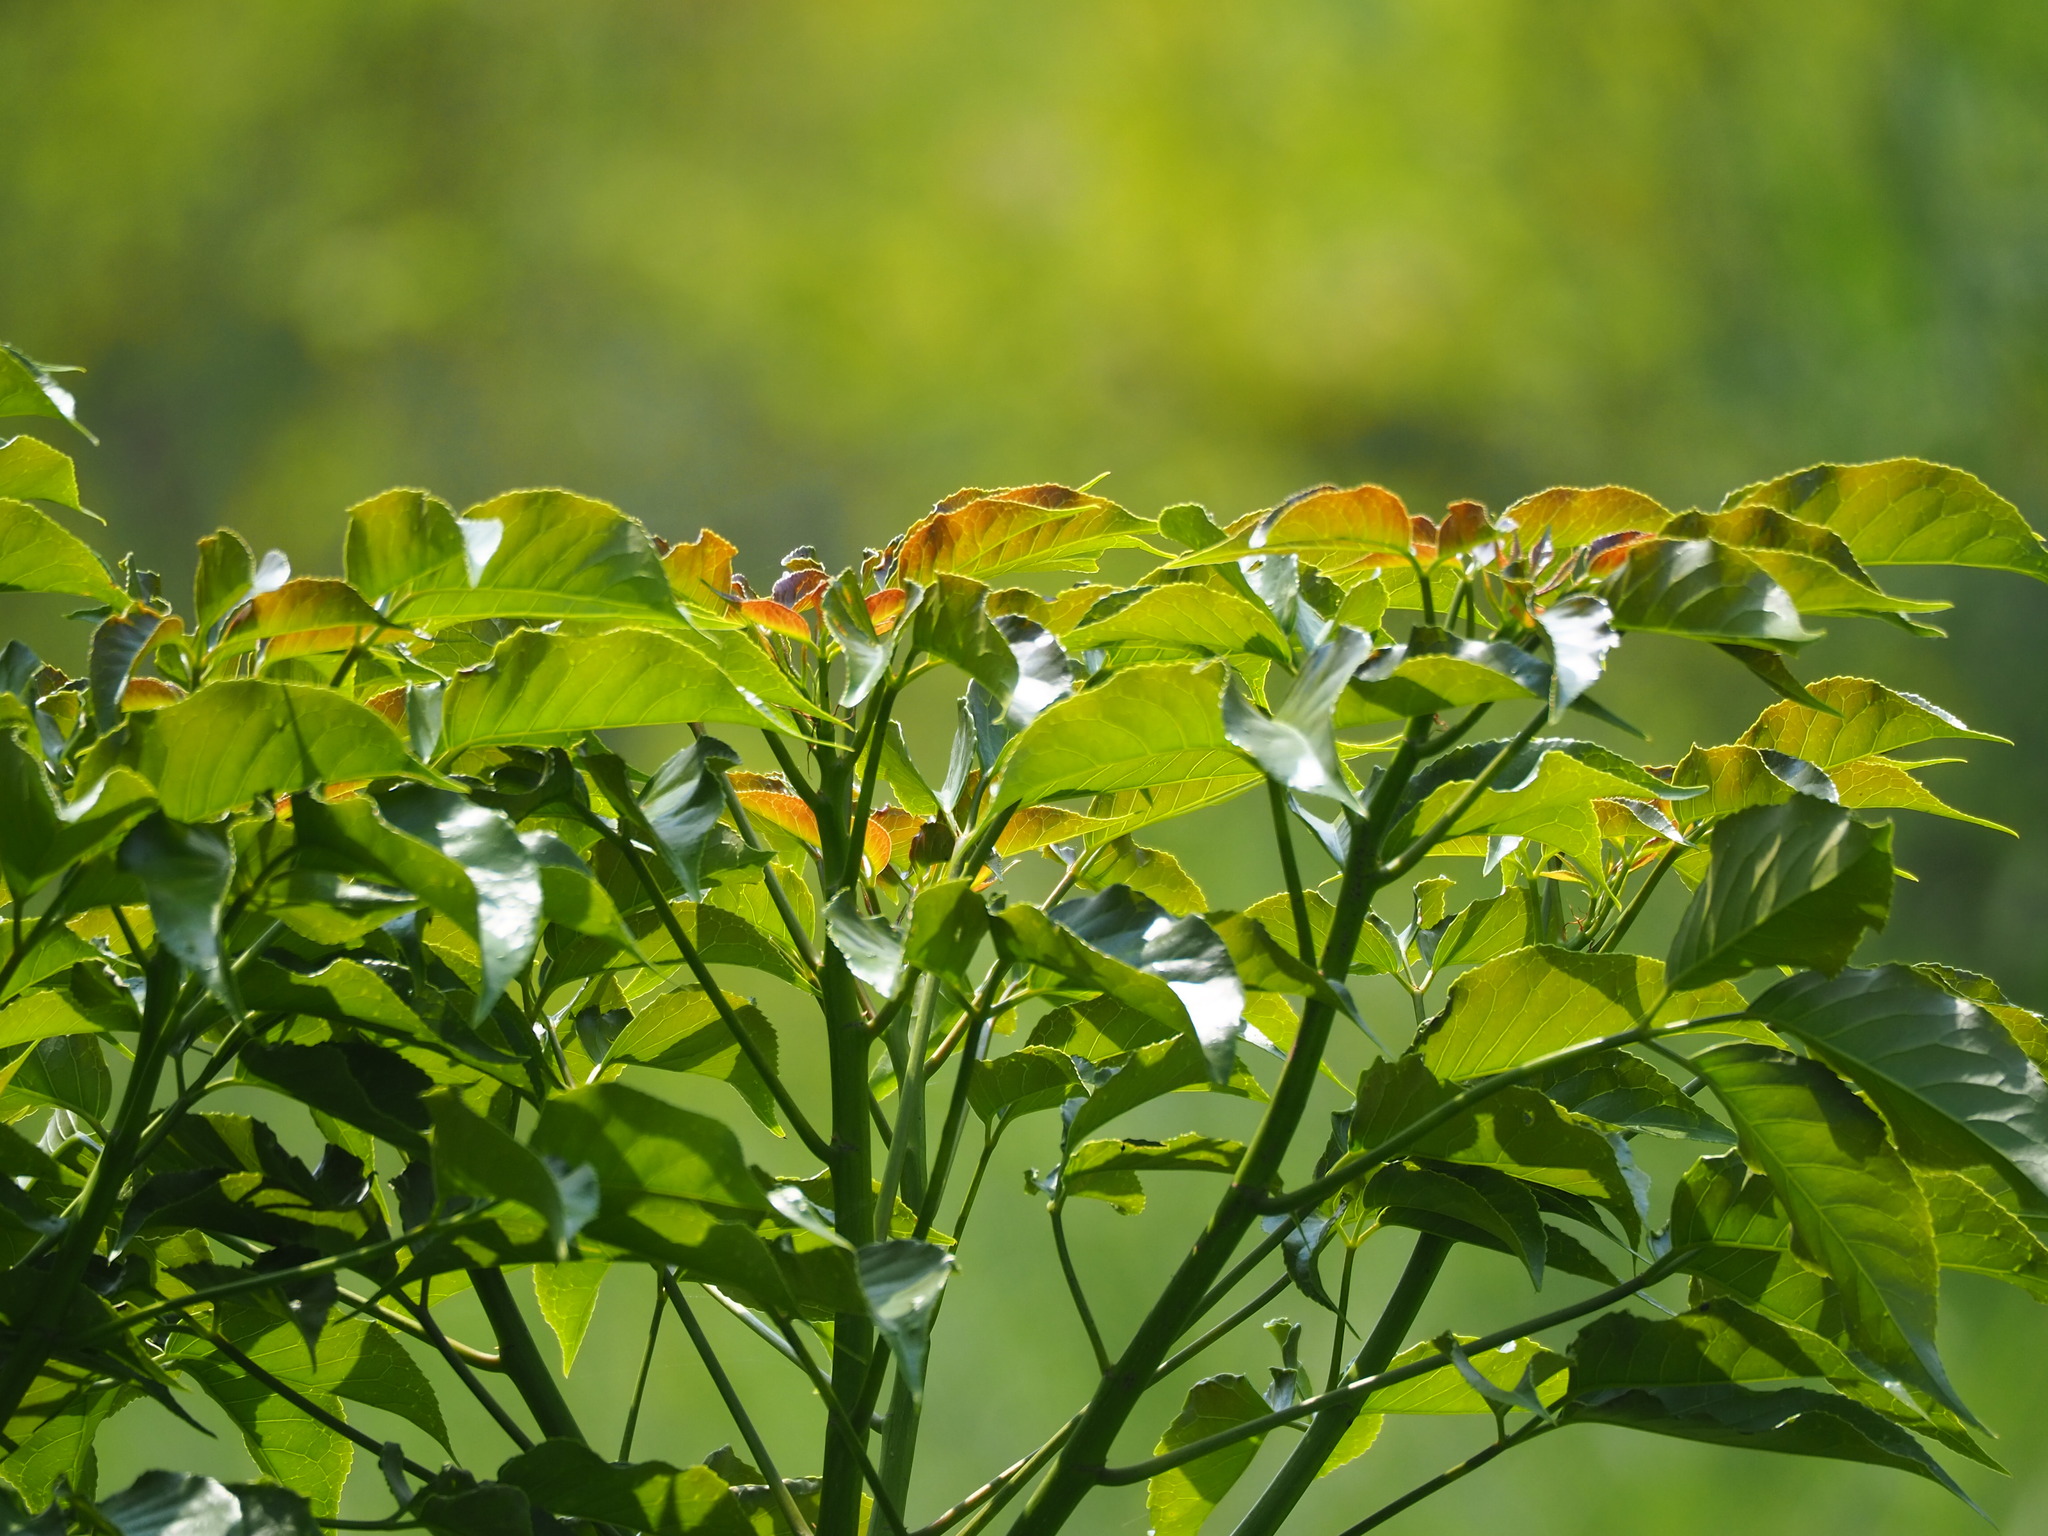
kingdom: Plantae
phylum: Tracheophyta
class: Magnoliopsida
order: Malpighiales
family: Phyllanthaceae
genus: Bischofia
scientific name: Bischofia javanica
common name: Javanese bishopwood
